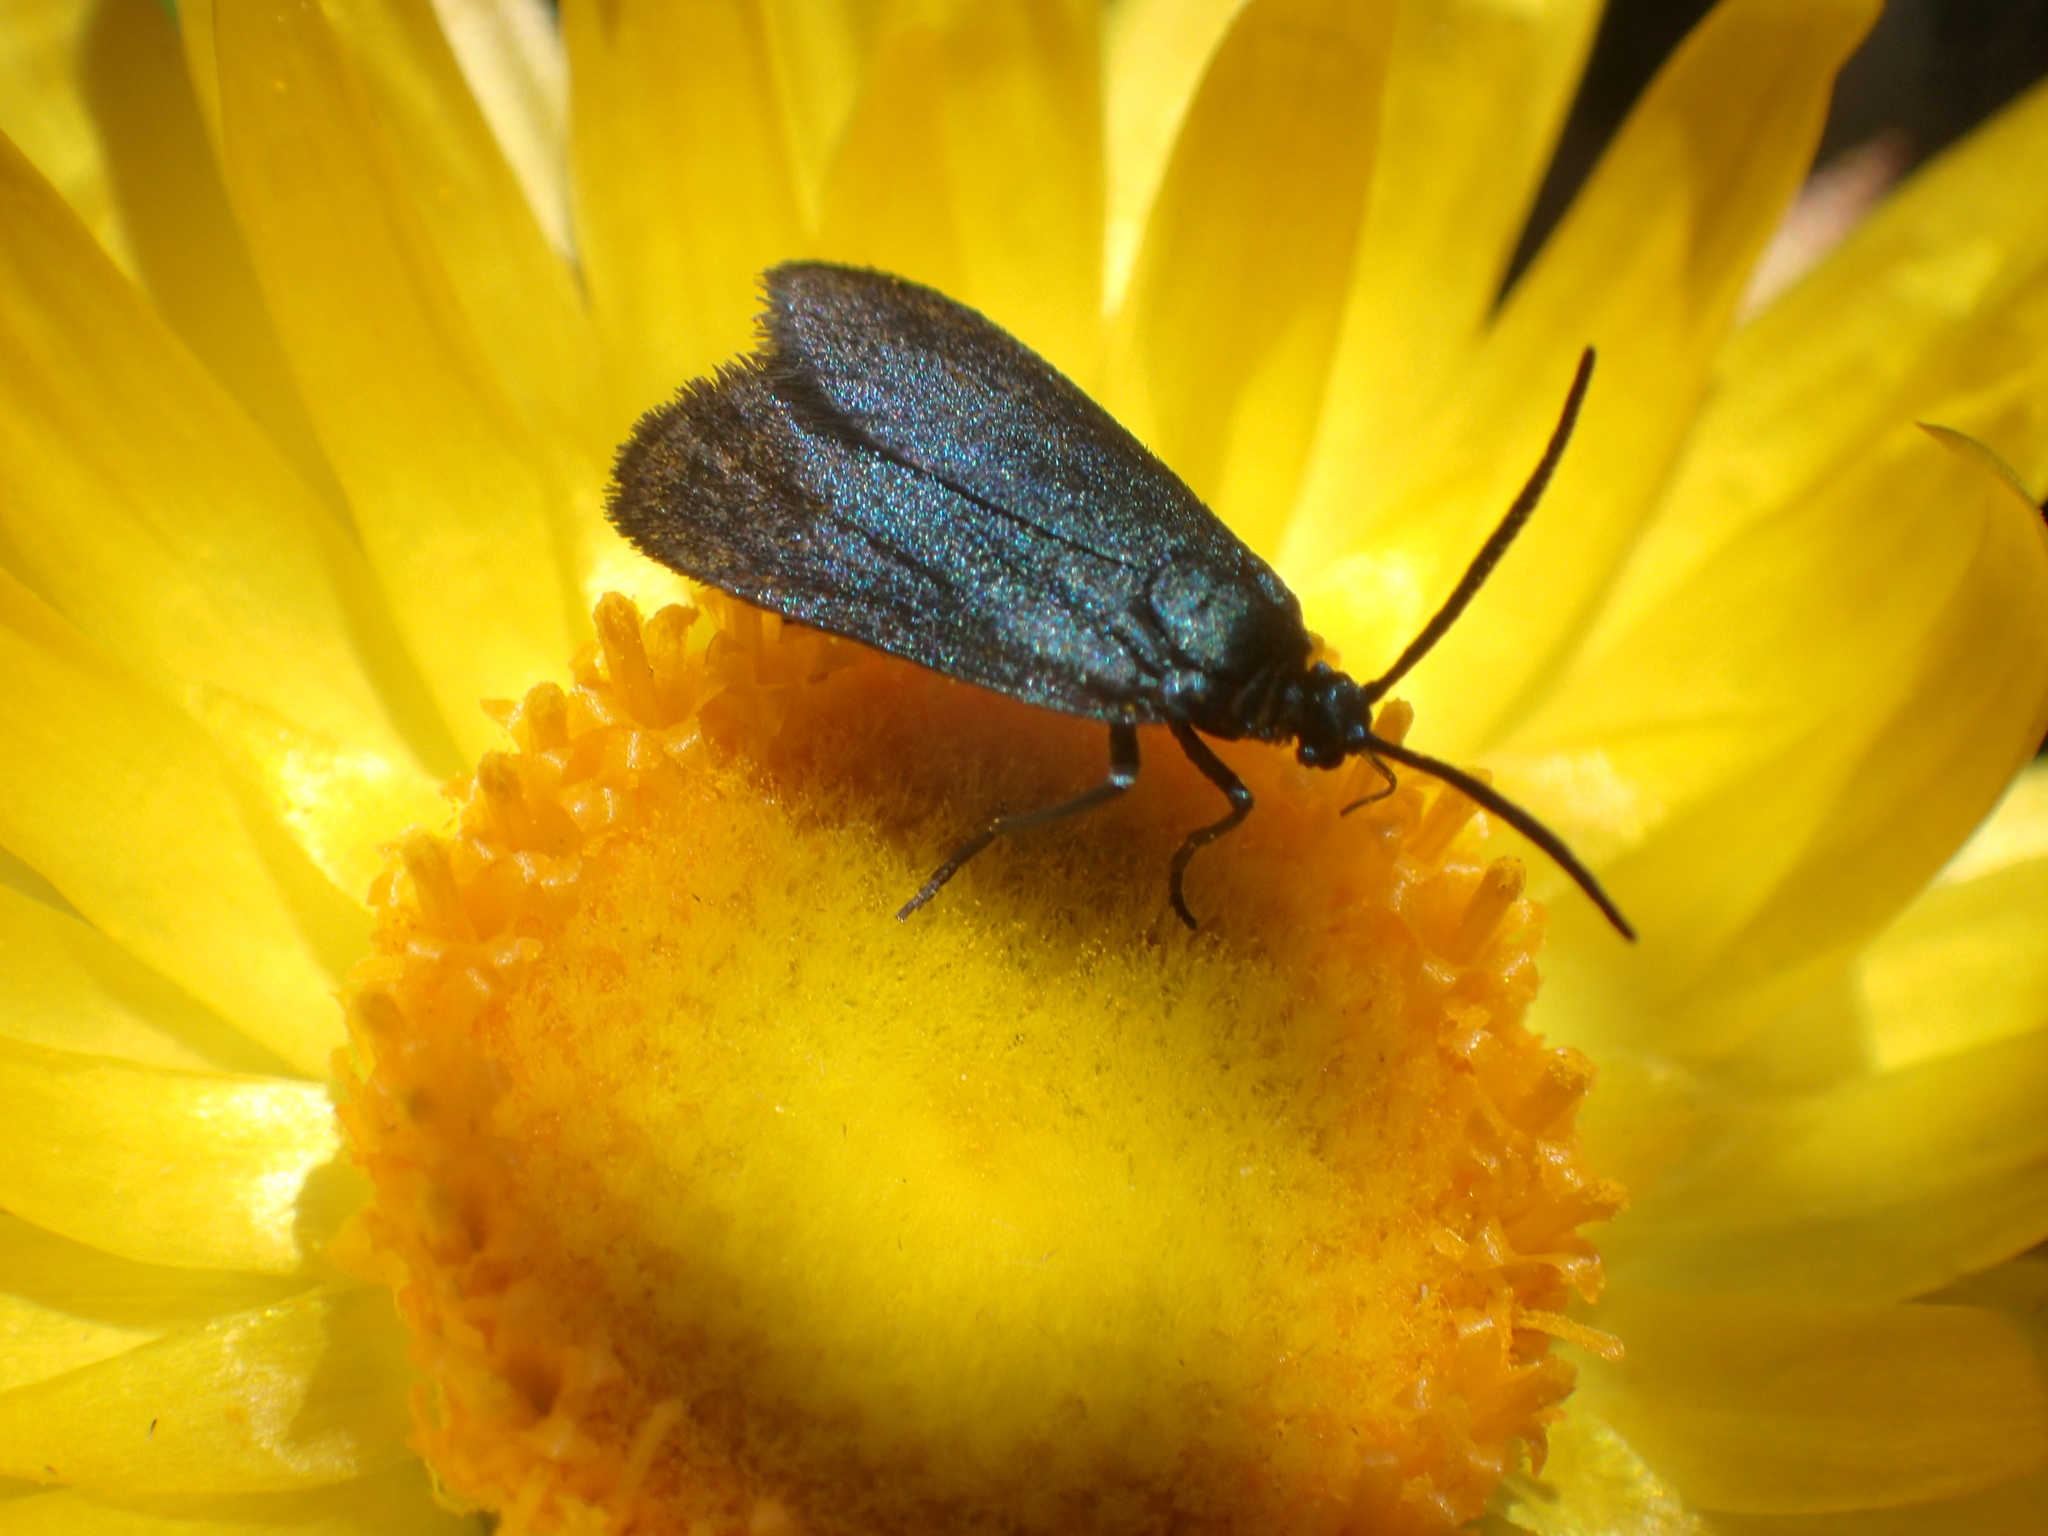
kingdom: Animalia
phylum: Arthropoda
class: Insecta
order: Lepidoptera
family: Zygaenidae
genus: Turneriprocris
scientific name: Turneriprocris dolens
